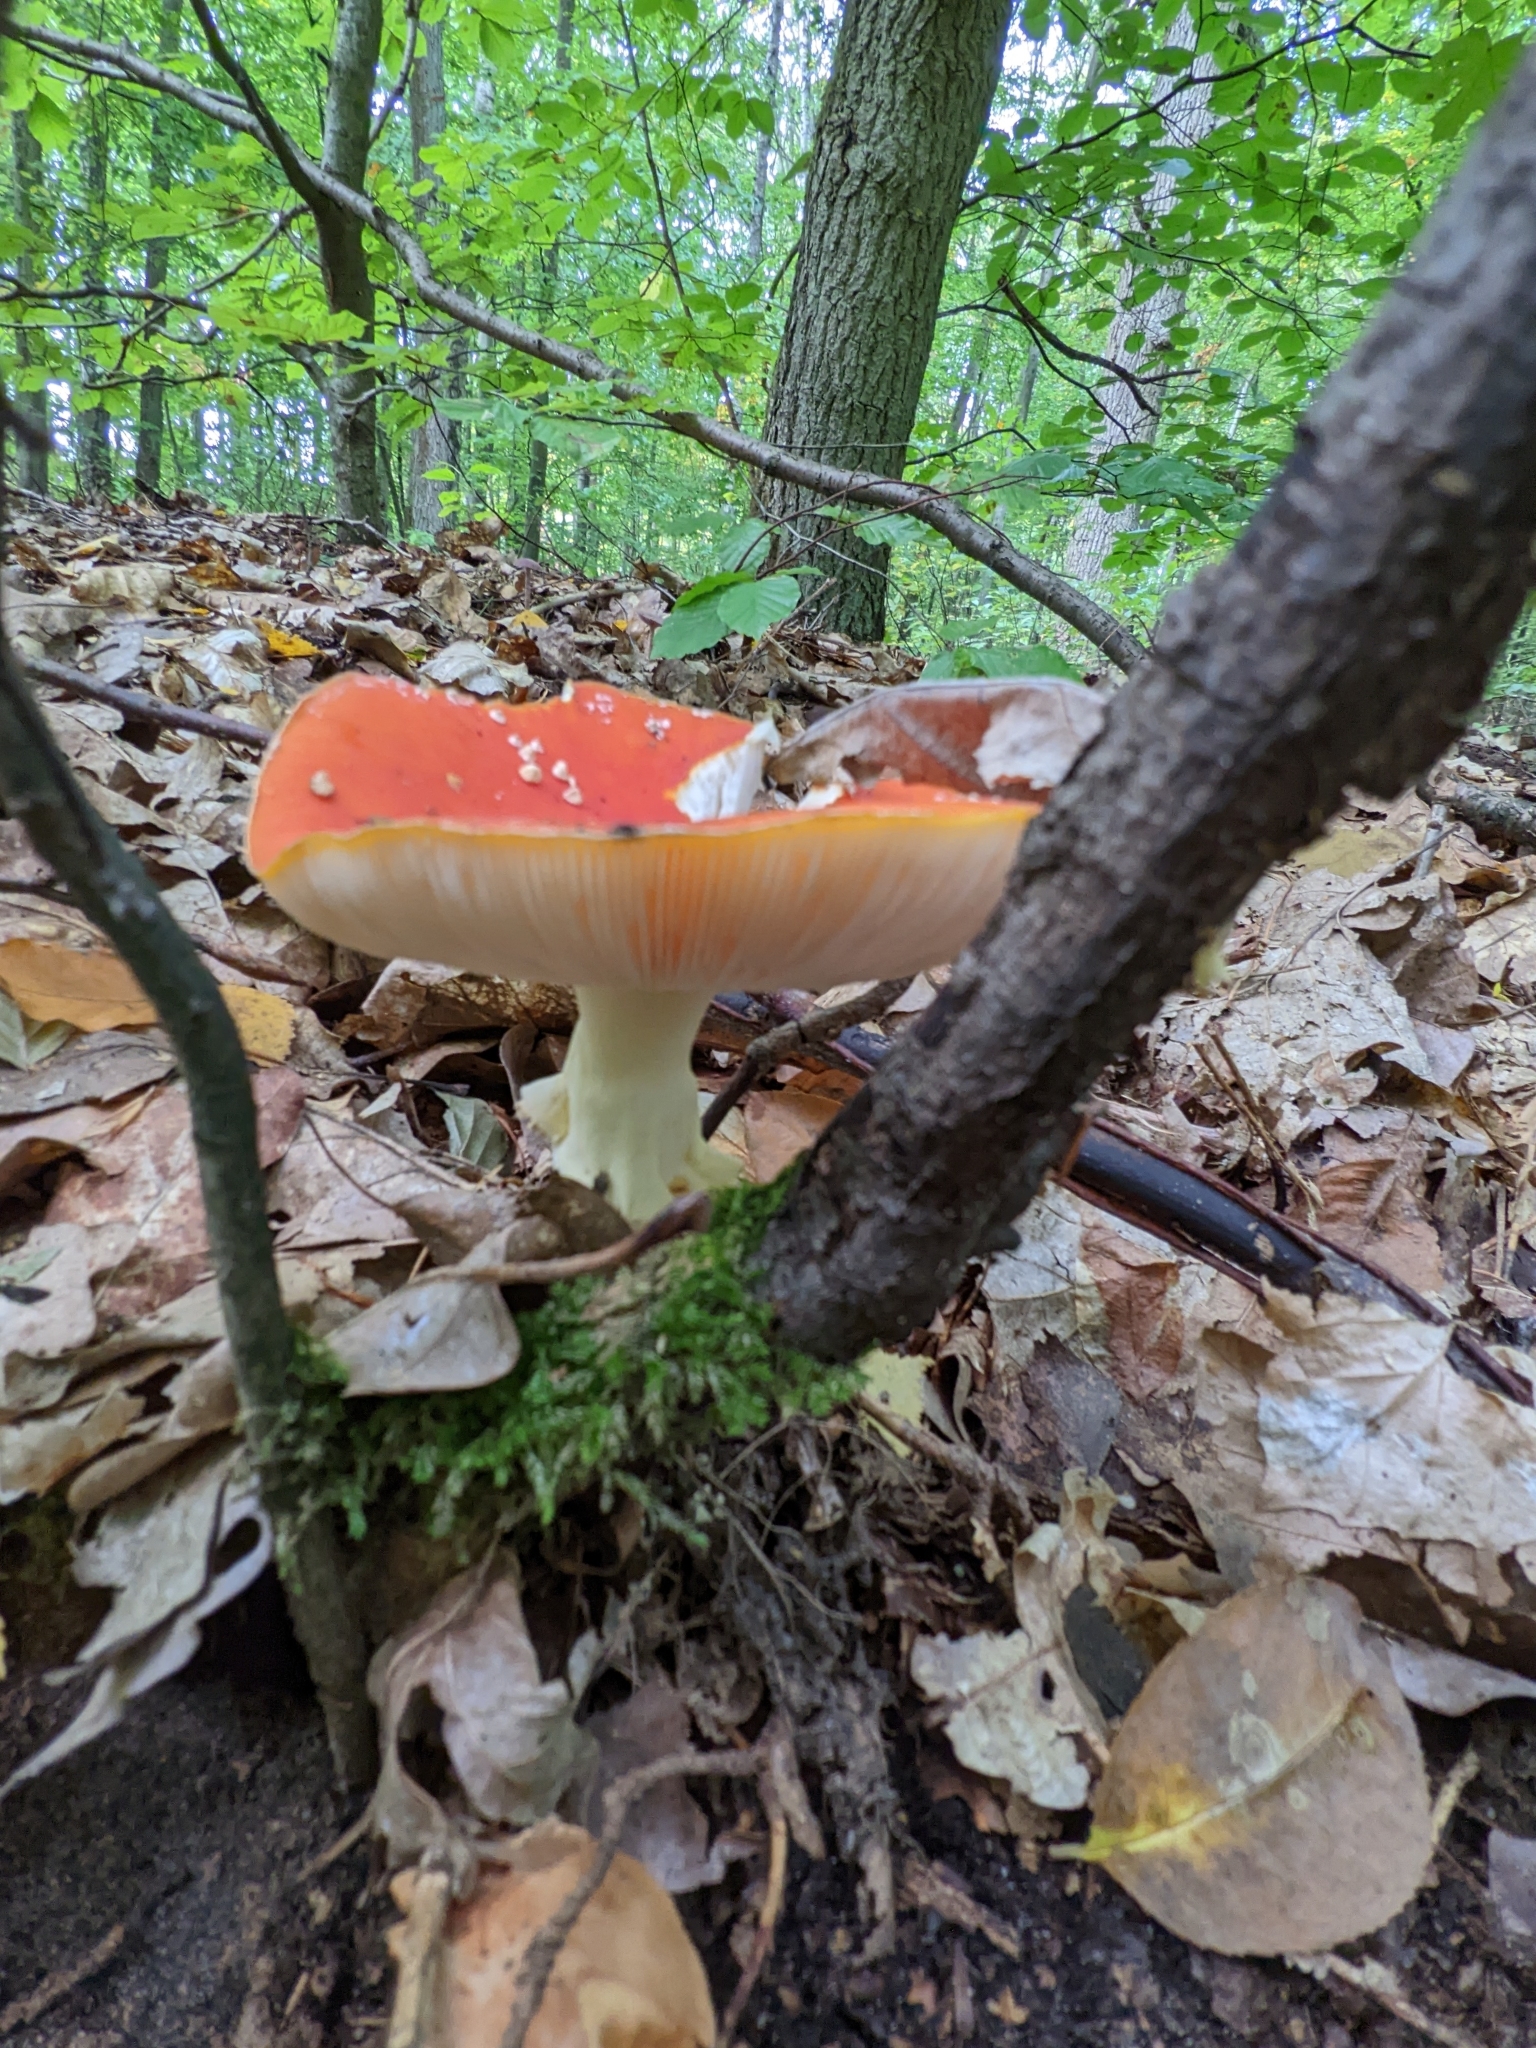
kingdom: Fungi
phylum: Basidiomycota
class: Agaricomycetes
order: Agaricales
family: Amanitaceae
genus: Amanita
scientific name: Amanita muscaria
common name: Fly agaric
